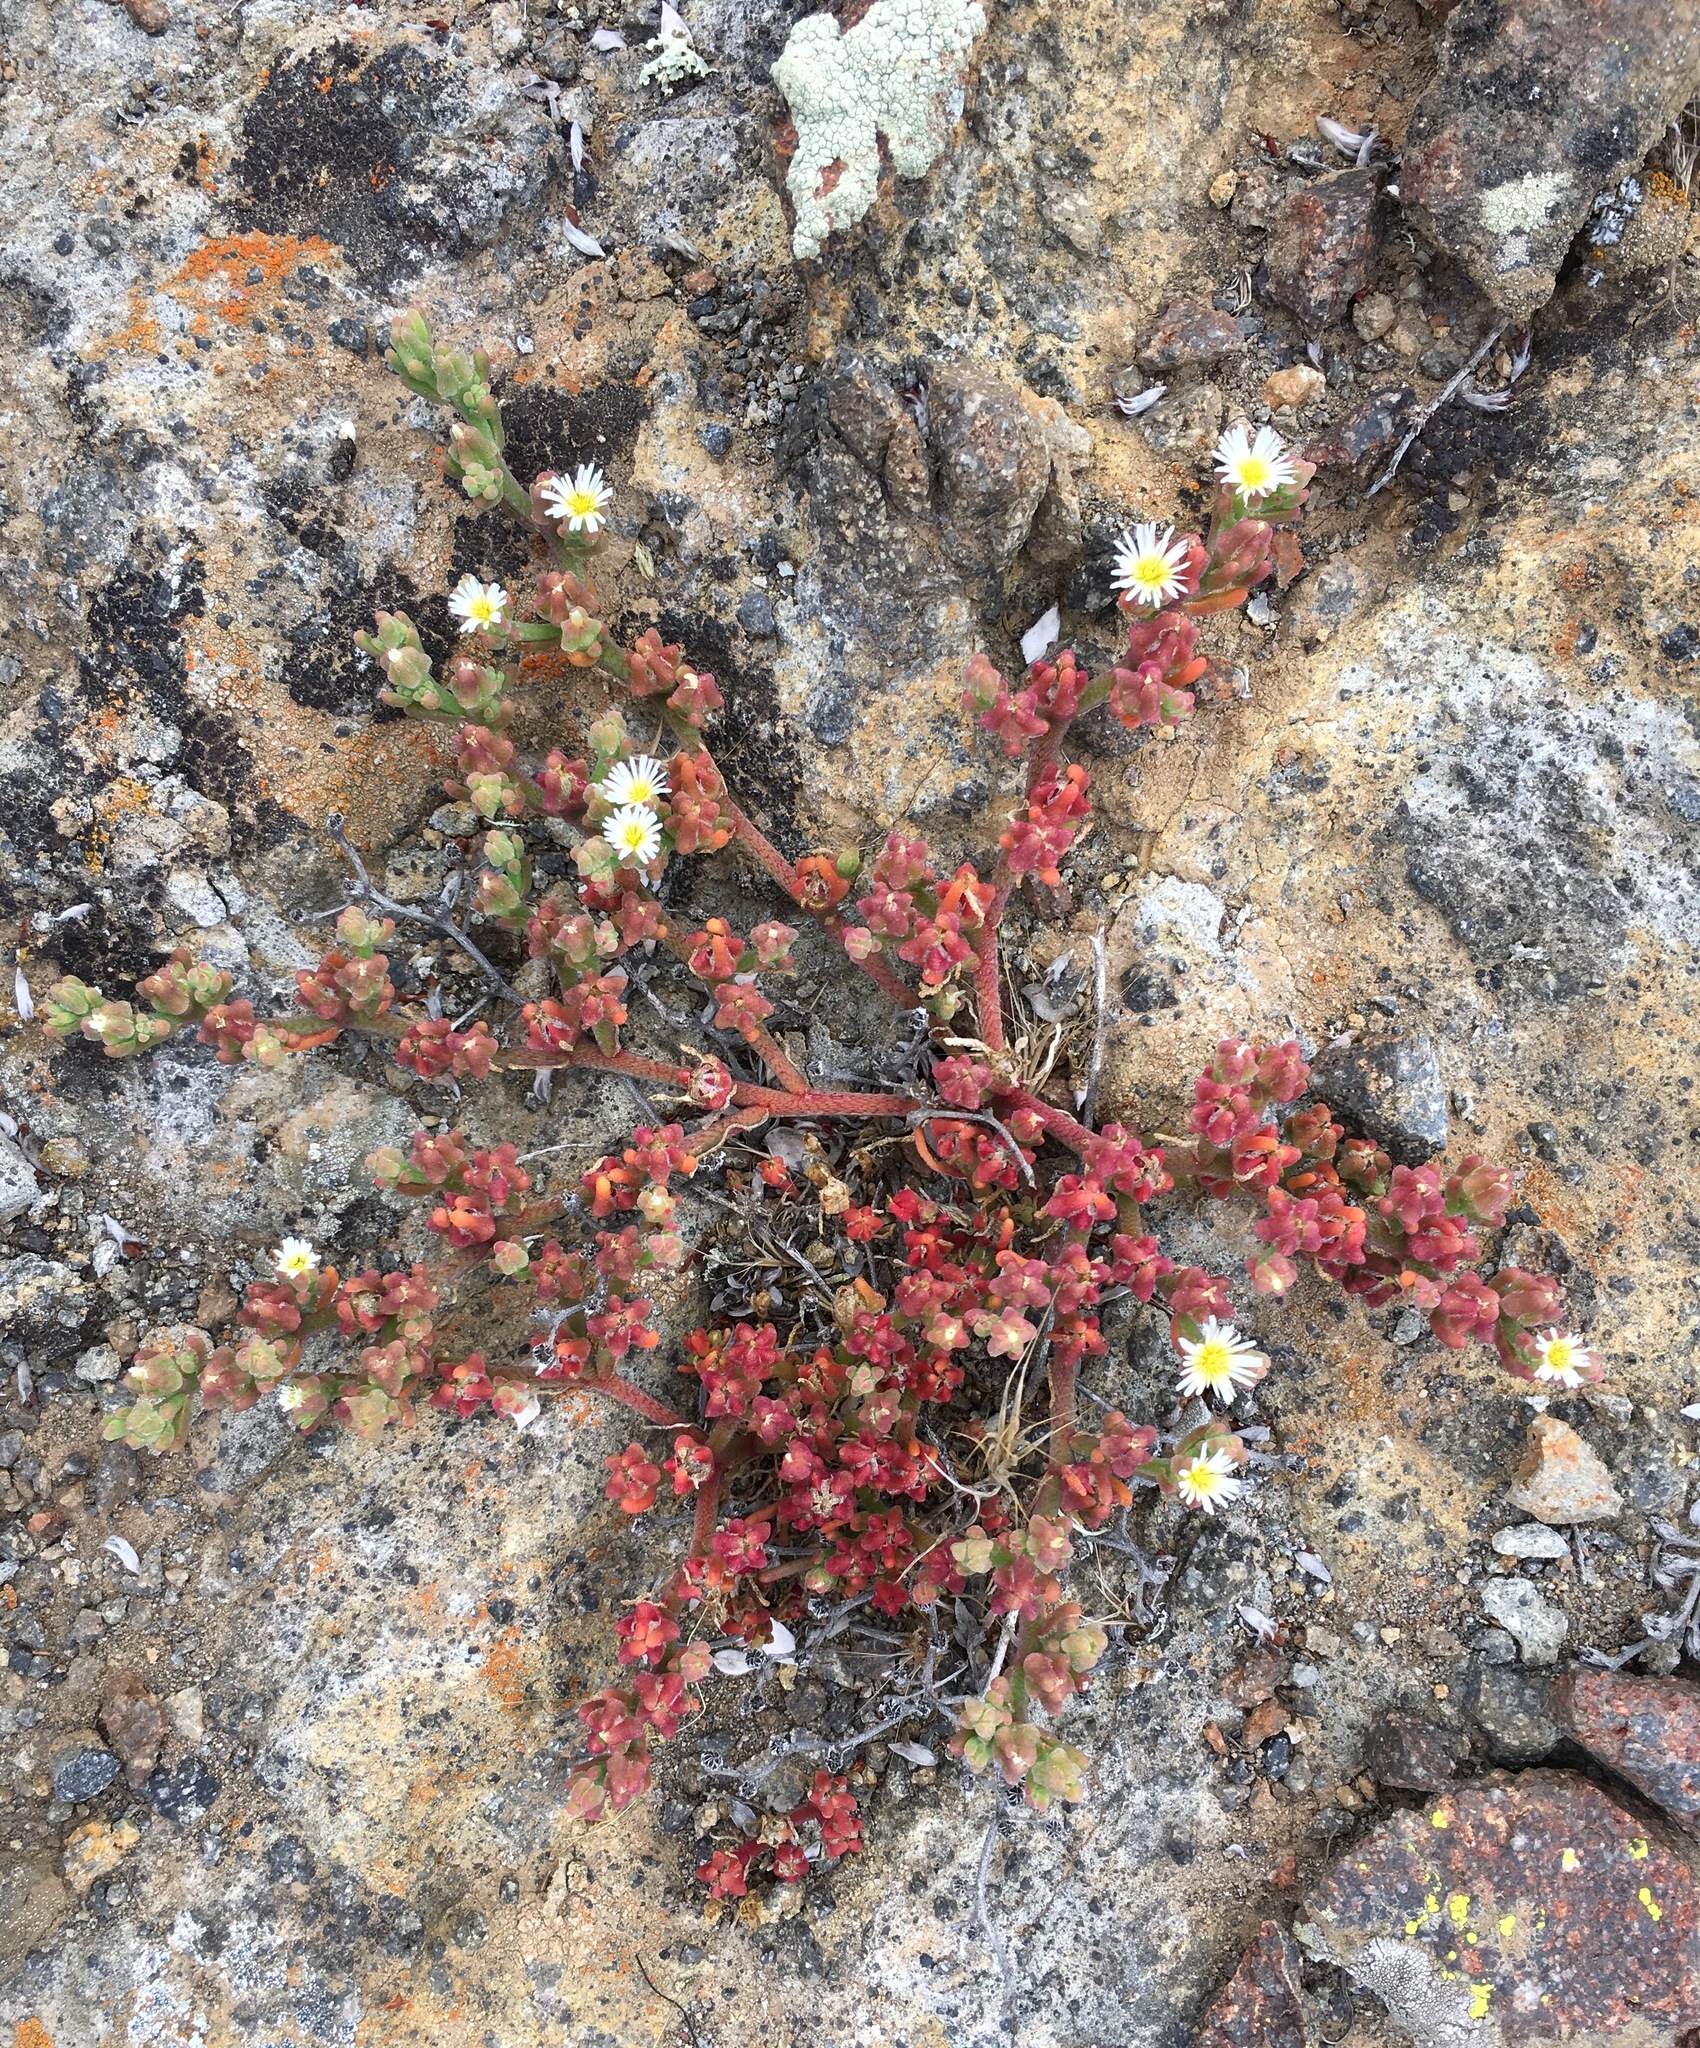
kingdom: Plantae
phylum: Tracheophyta
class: Magnoliopsida
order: Caryophyllales
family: Aizoaceae
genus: Mesembryanthemum
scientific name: Mesembryanthemum nodiflorum
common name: Slenderleaf iceplant
